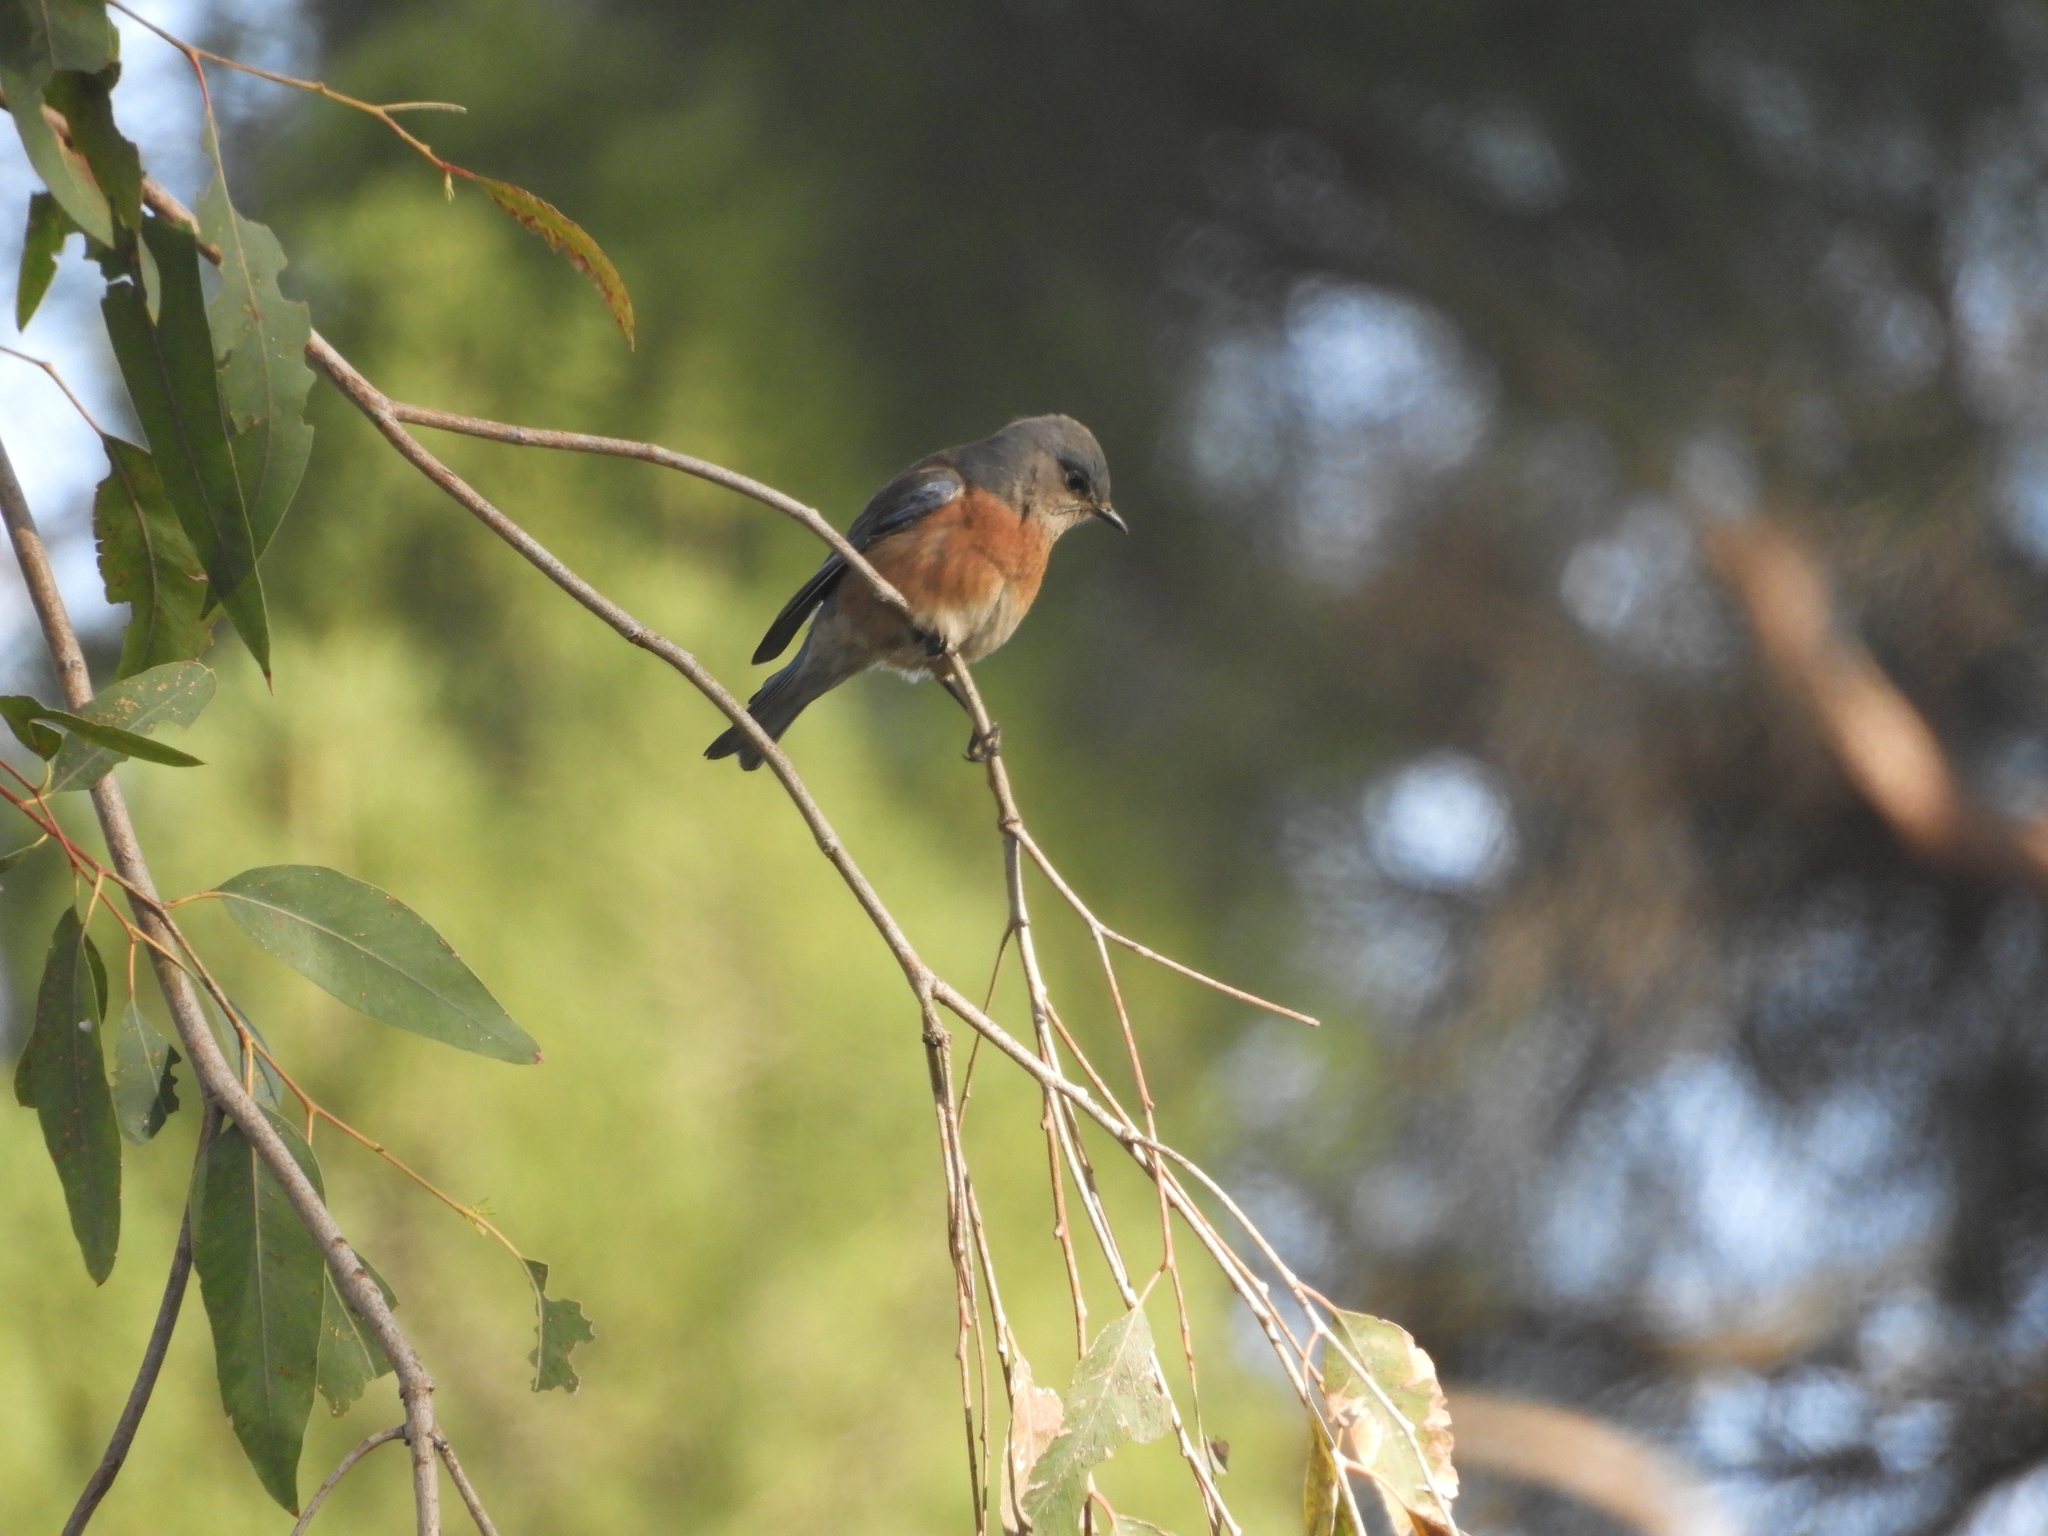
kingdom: Animalia
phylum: Chordata
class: Aves
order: Passeriformes
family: Turdidae
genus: Sialia
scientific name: Sialia mexicana
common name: Western bluebird
